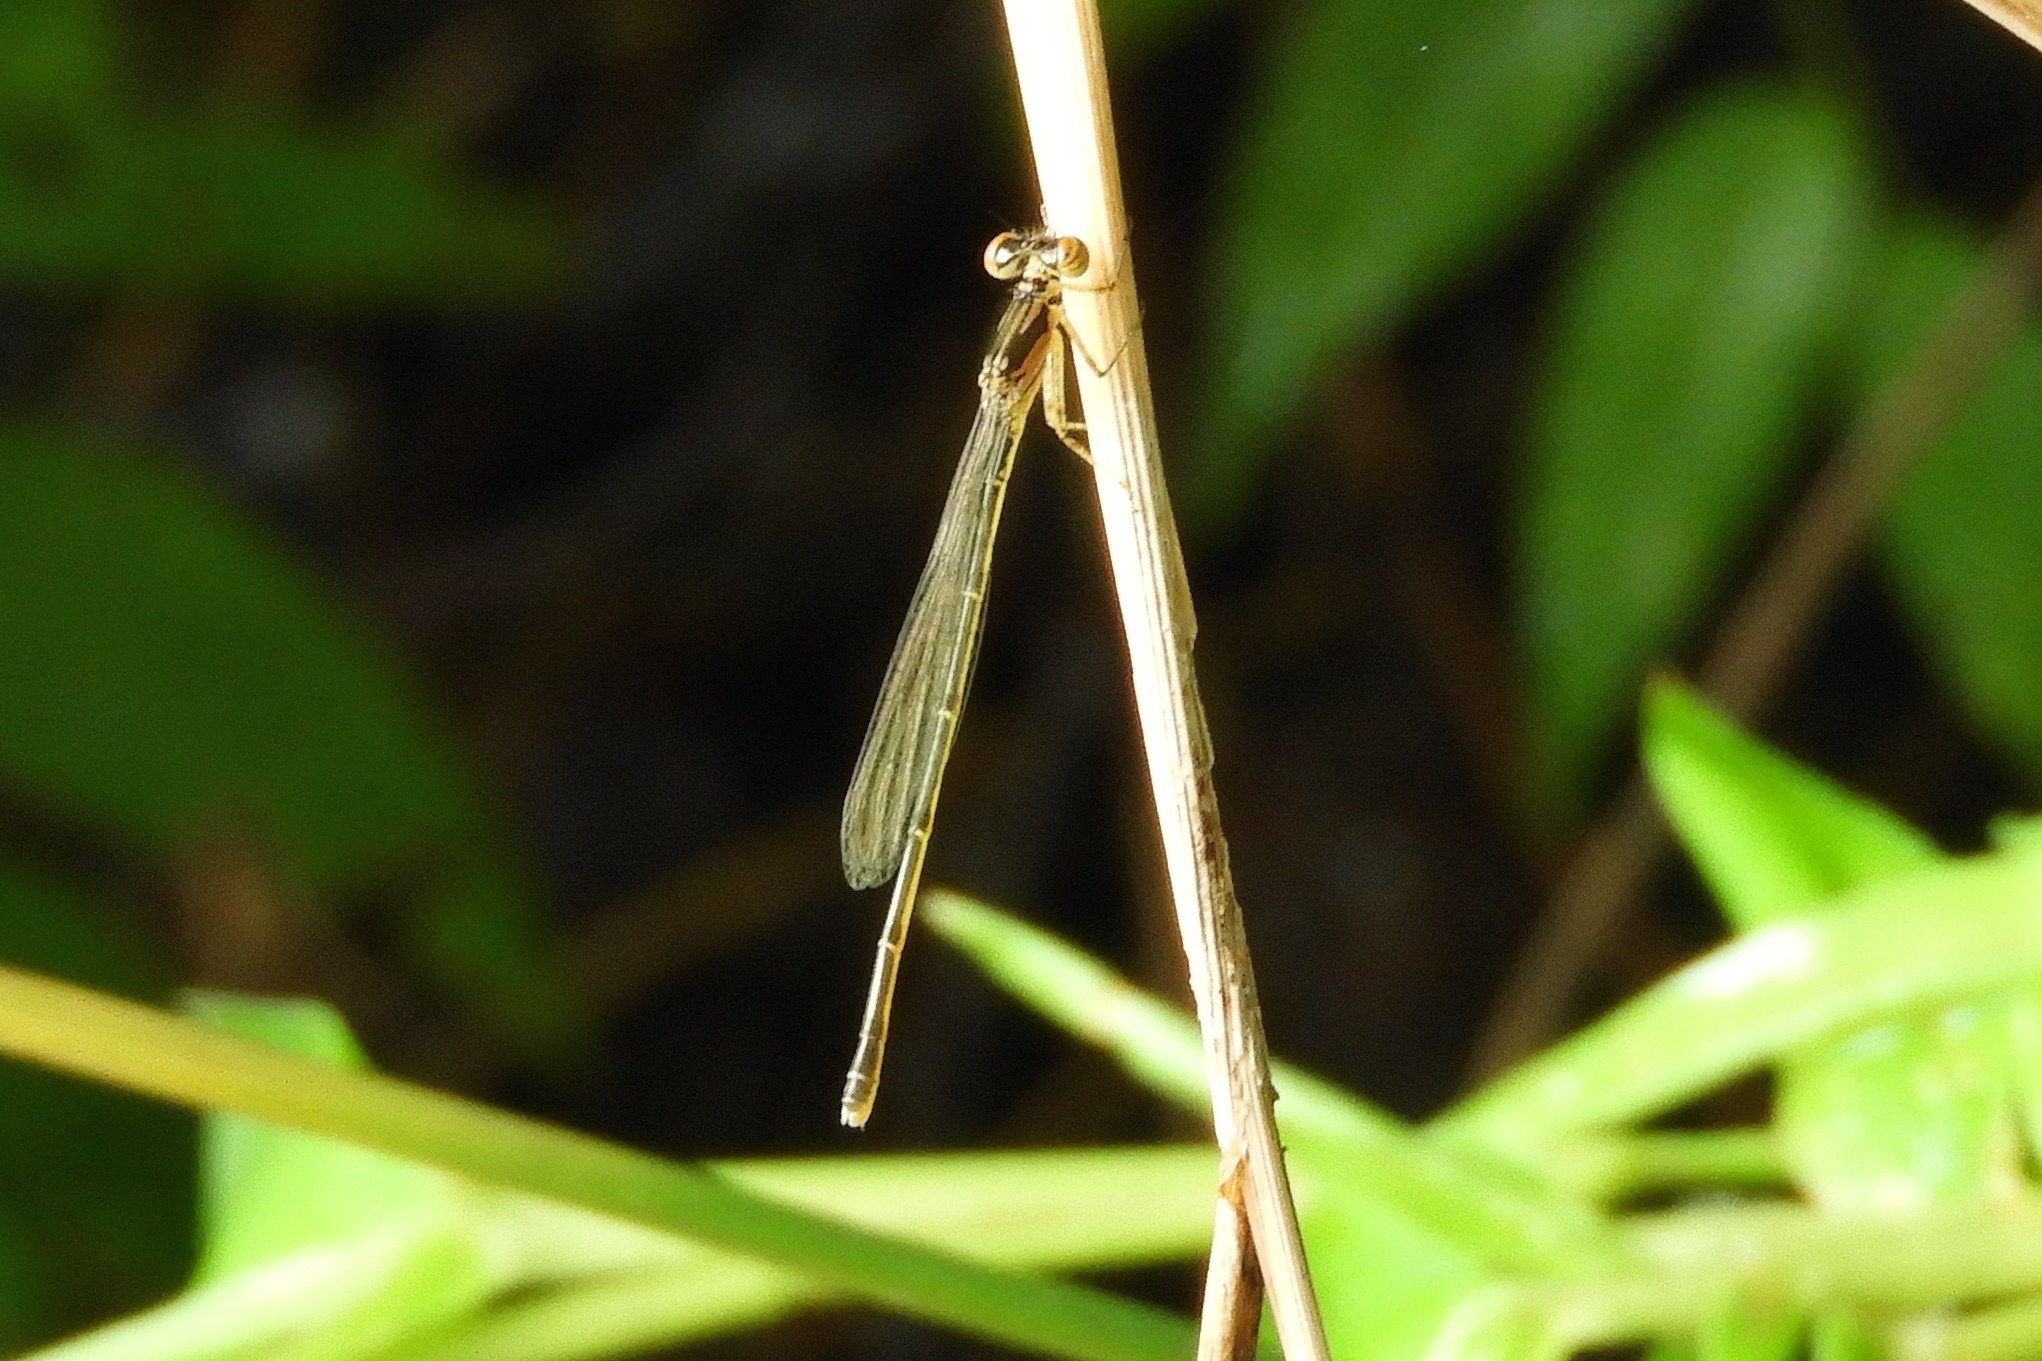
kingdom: Animalia
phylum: Arthropoda
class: Insecta
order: Odonata
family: Coenagrionidae
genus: Ischnura
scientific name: Ischnura posita
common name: Fragile forktail
